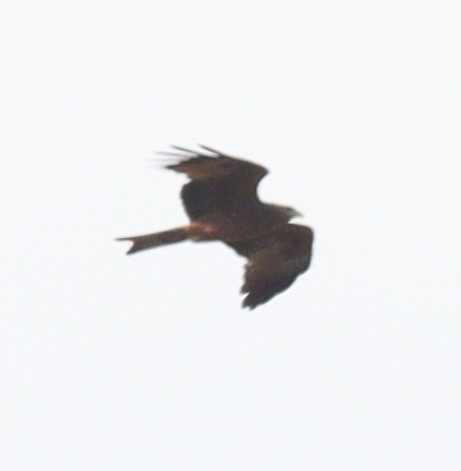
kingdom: Animalia
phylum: Chordata
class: Aves
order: Accipitriformes
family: Accipitridae
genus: Milvus
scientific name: Milvus migrans
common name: Black kite
